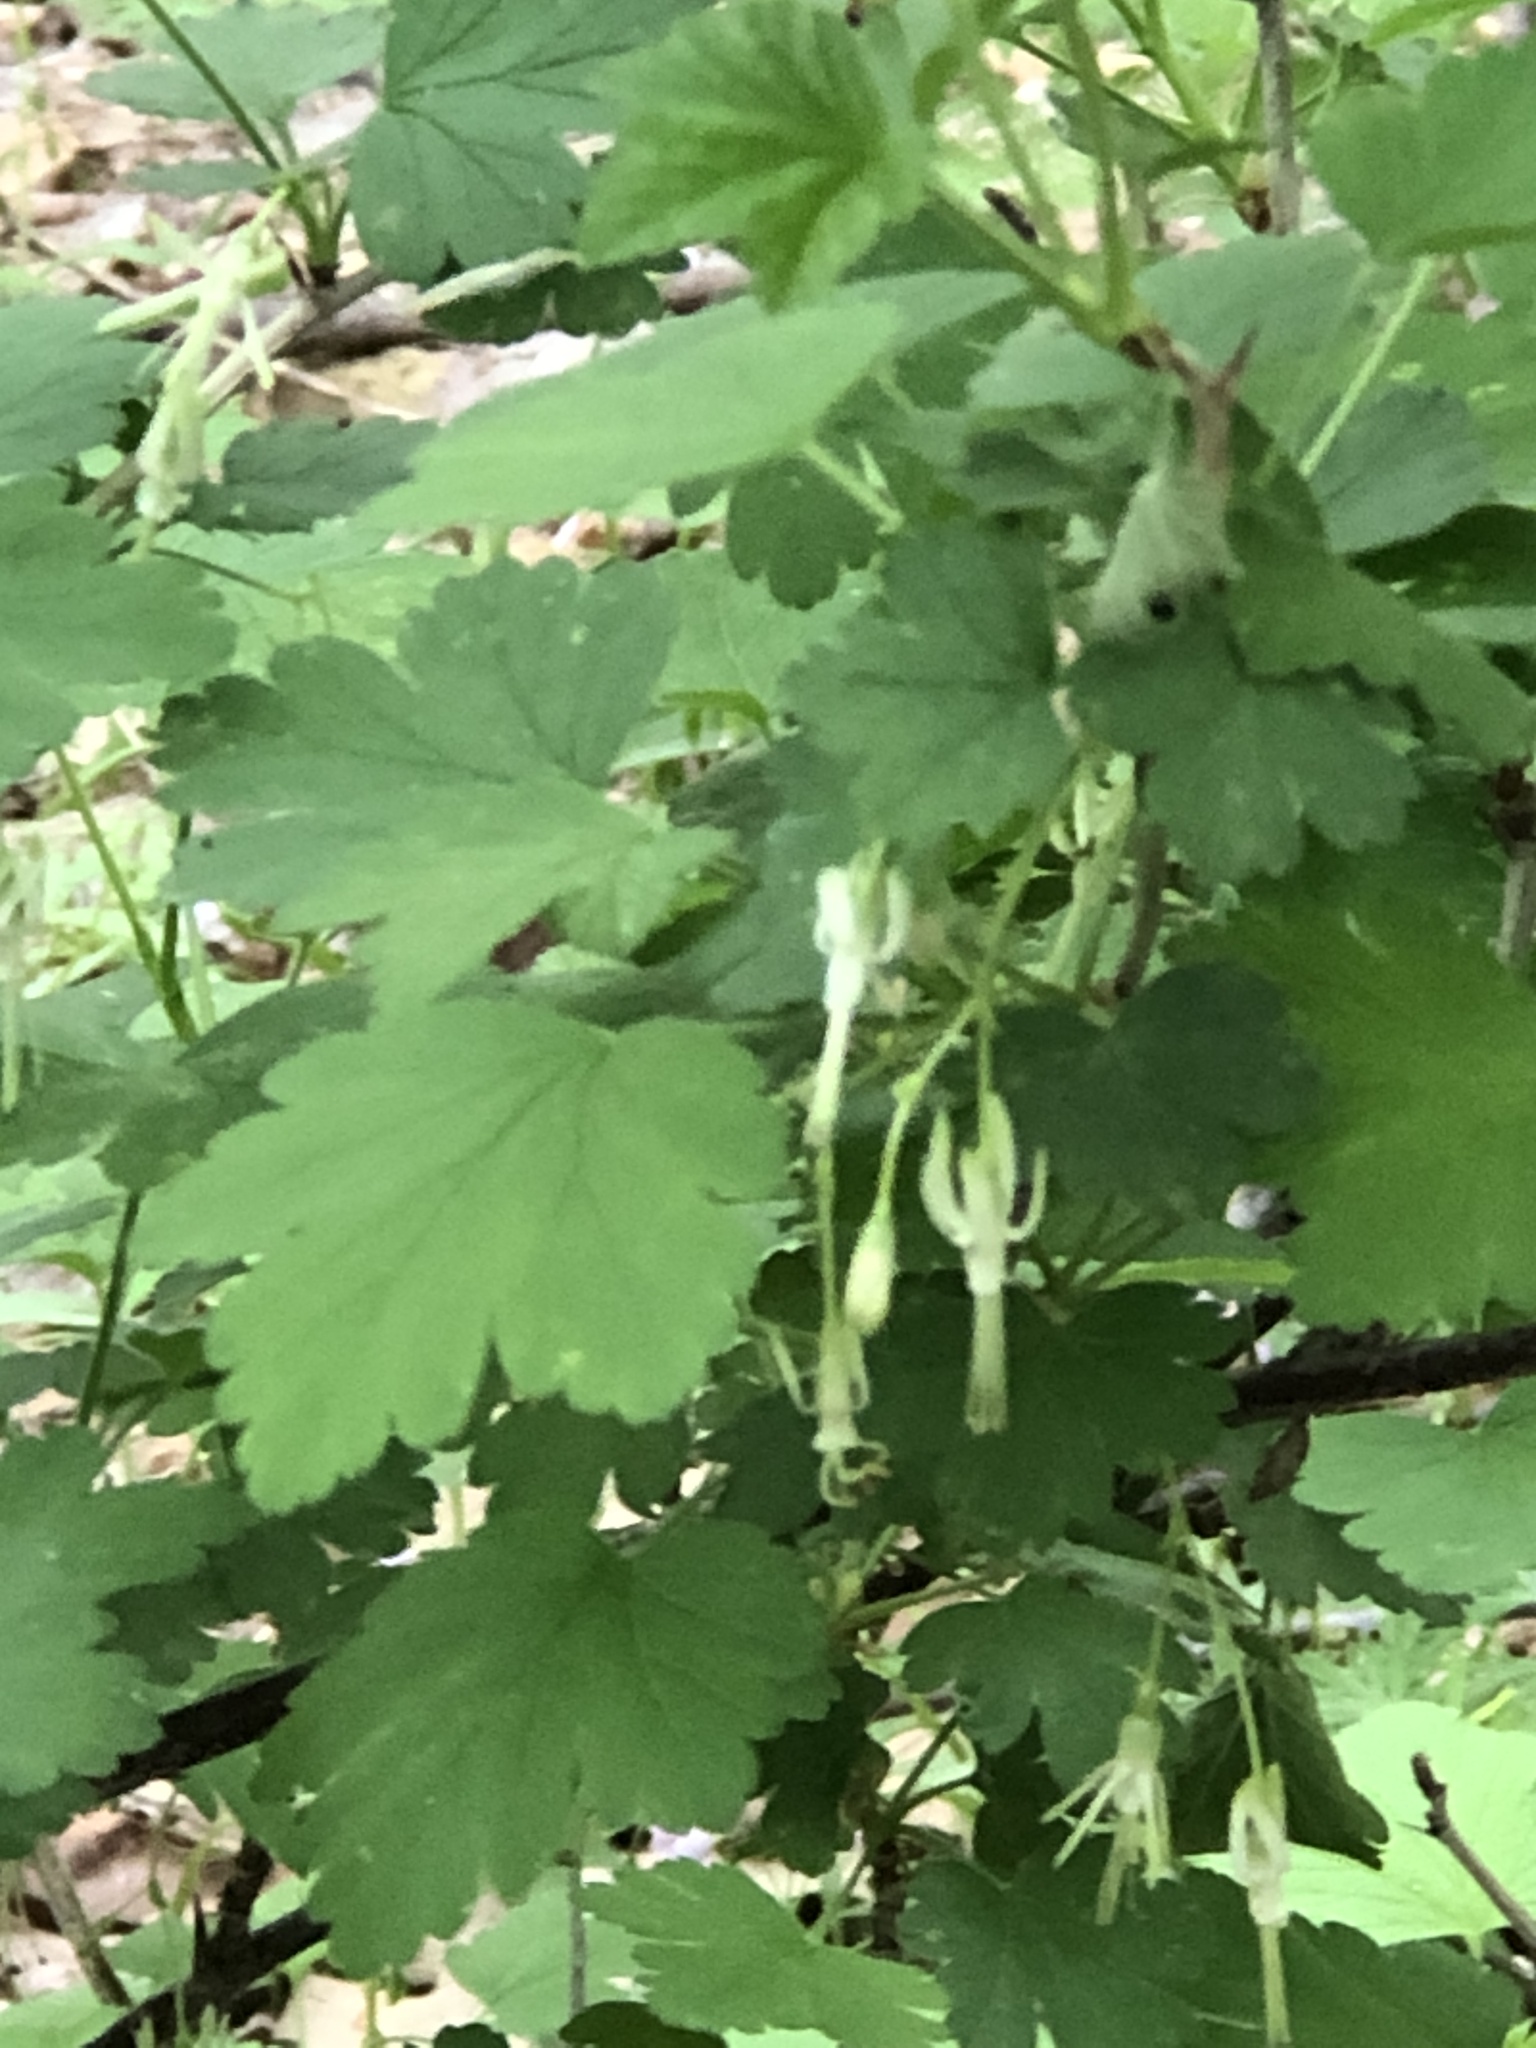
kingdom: Plantae
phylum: Tracheophyta
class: Magnoliopsida
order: Saxifragales
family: Grossulariaceae
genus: Ribes
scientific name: Ribes missouriense
